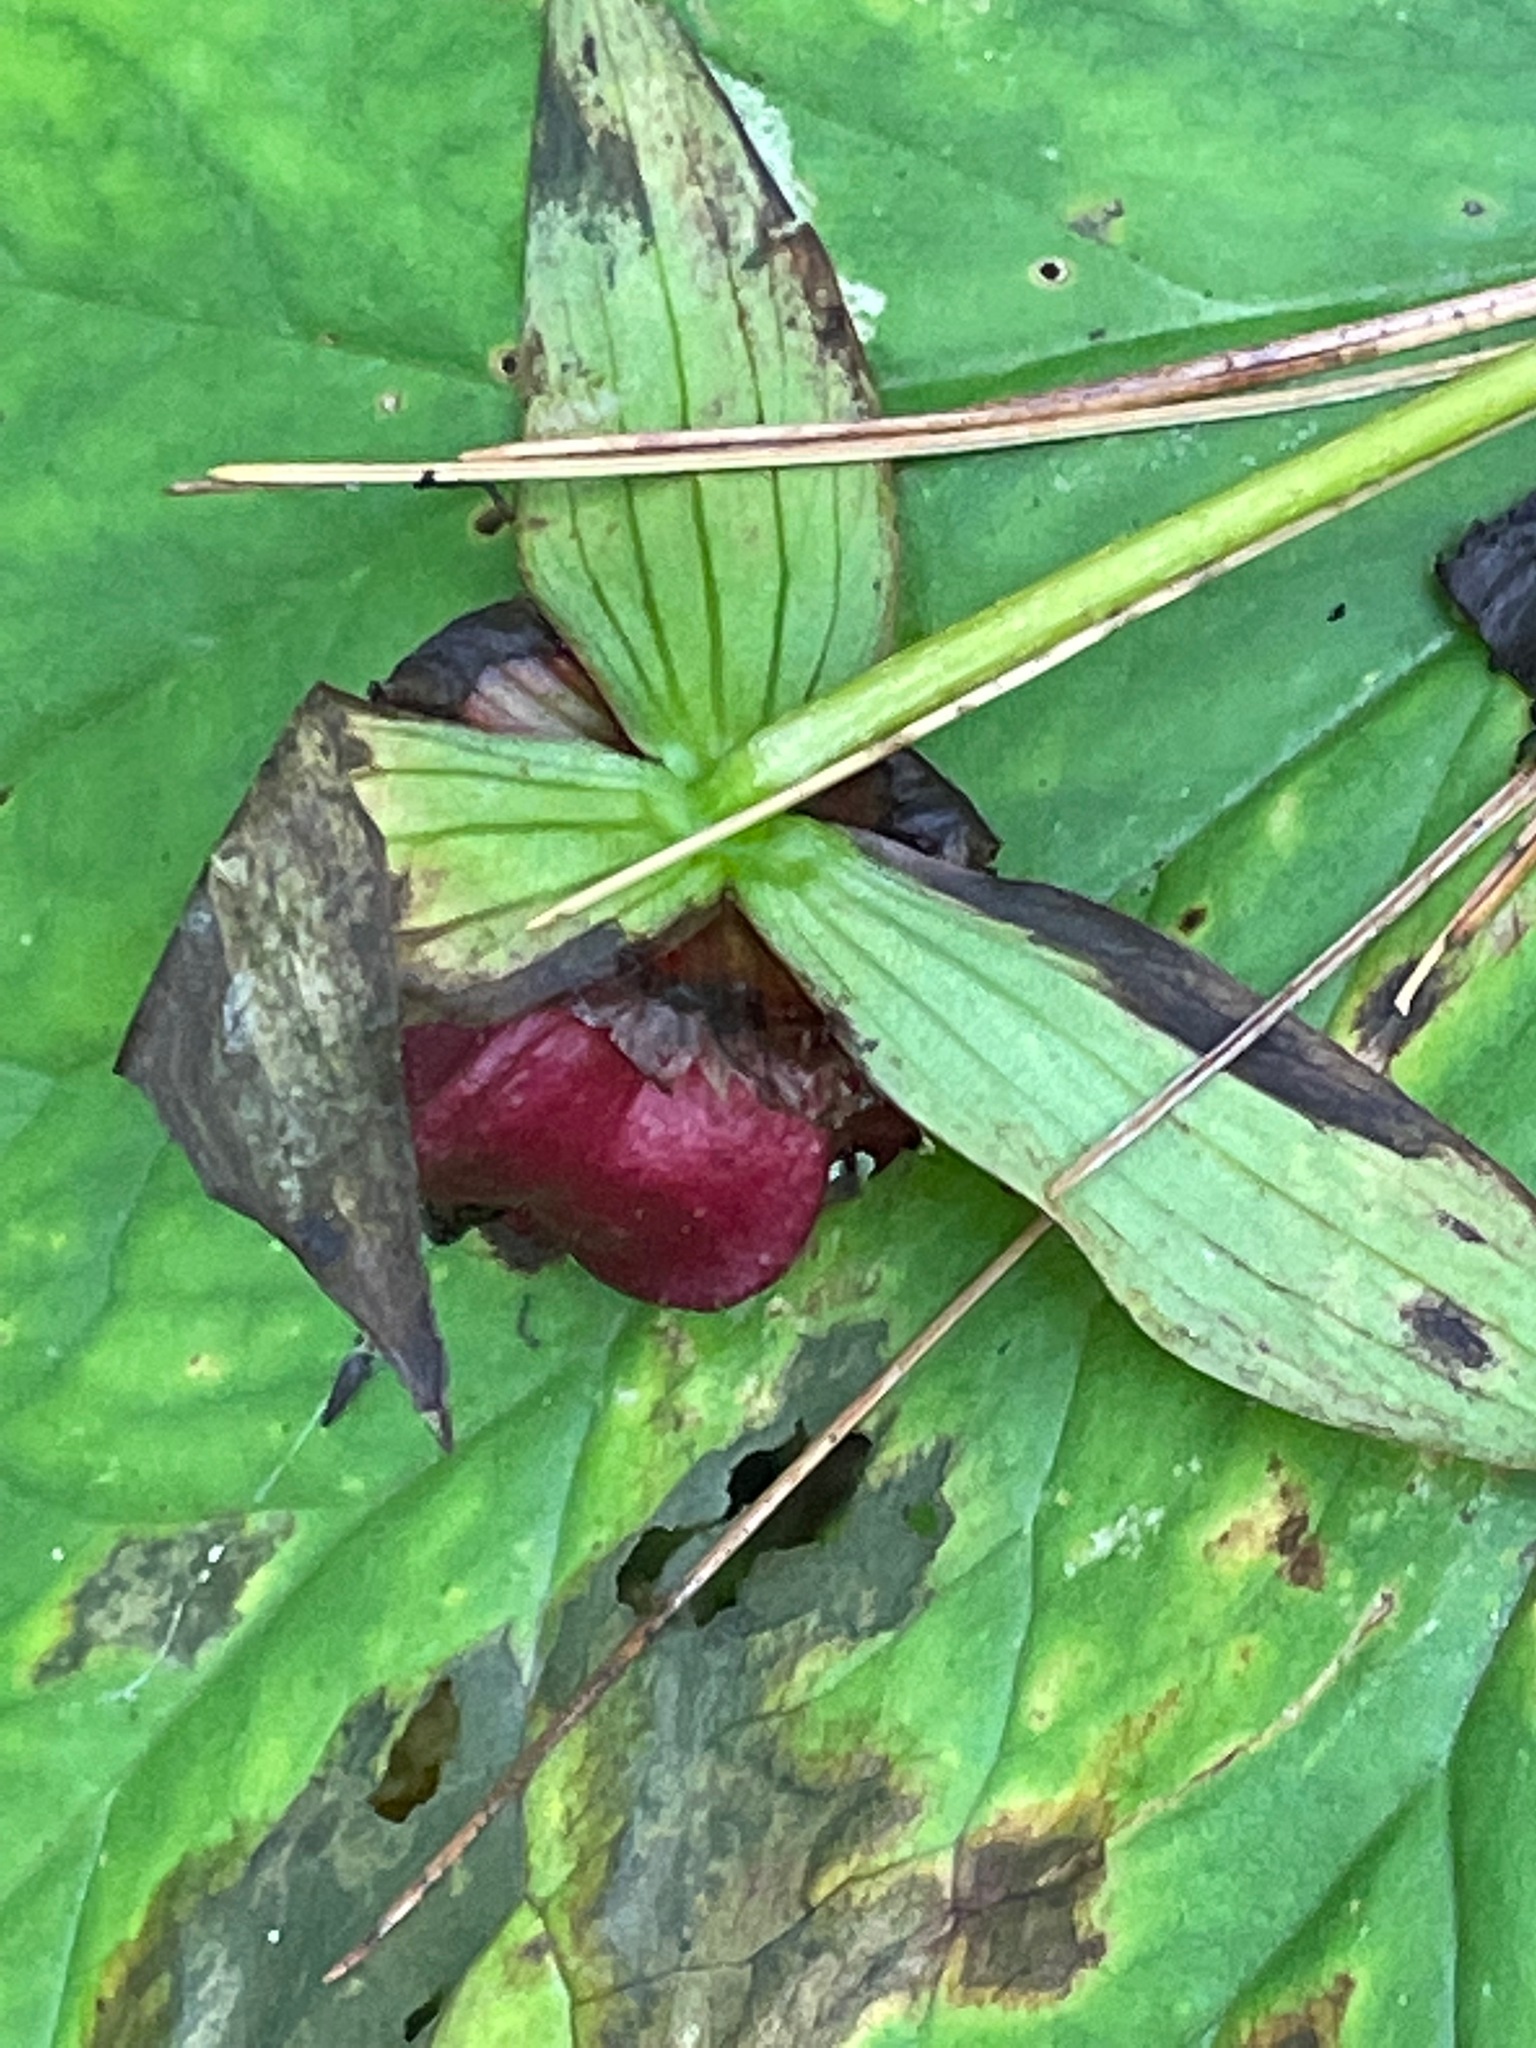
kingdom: Plantae
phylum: Tracheophyta
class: Liliopsida
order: Liliales
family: Melanthiaceae
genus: Trillium
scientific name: Trillium erectum
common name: Purple trillium
